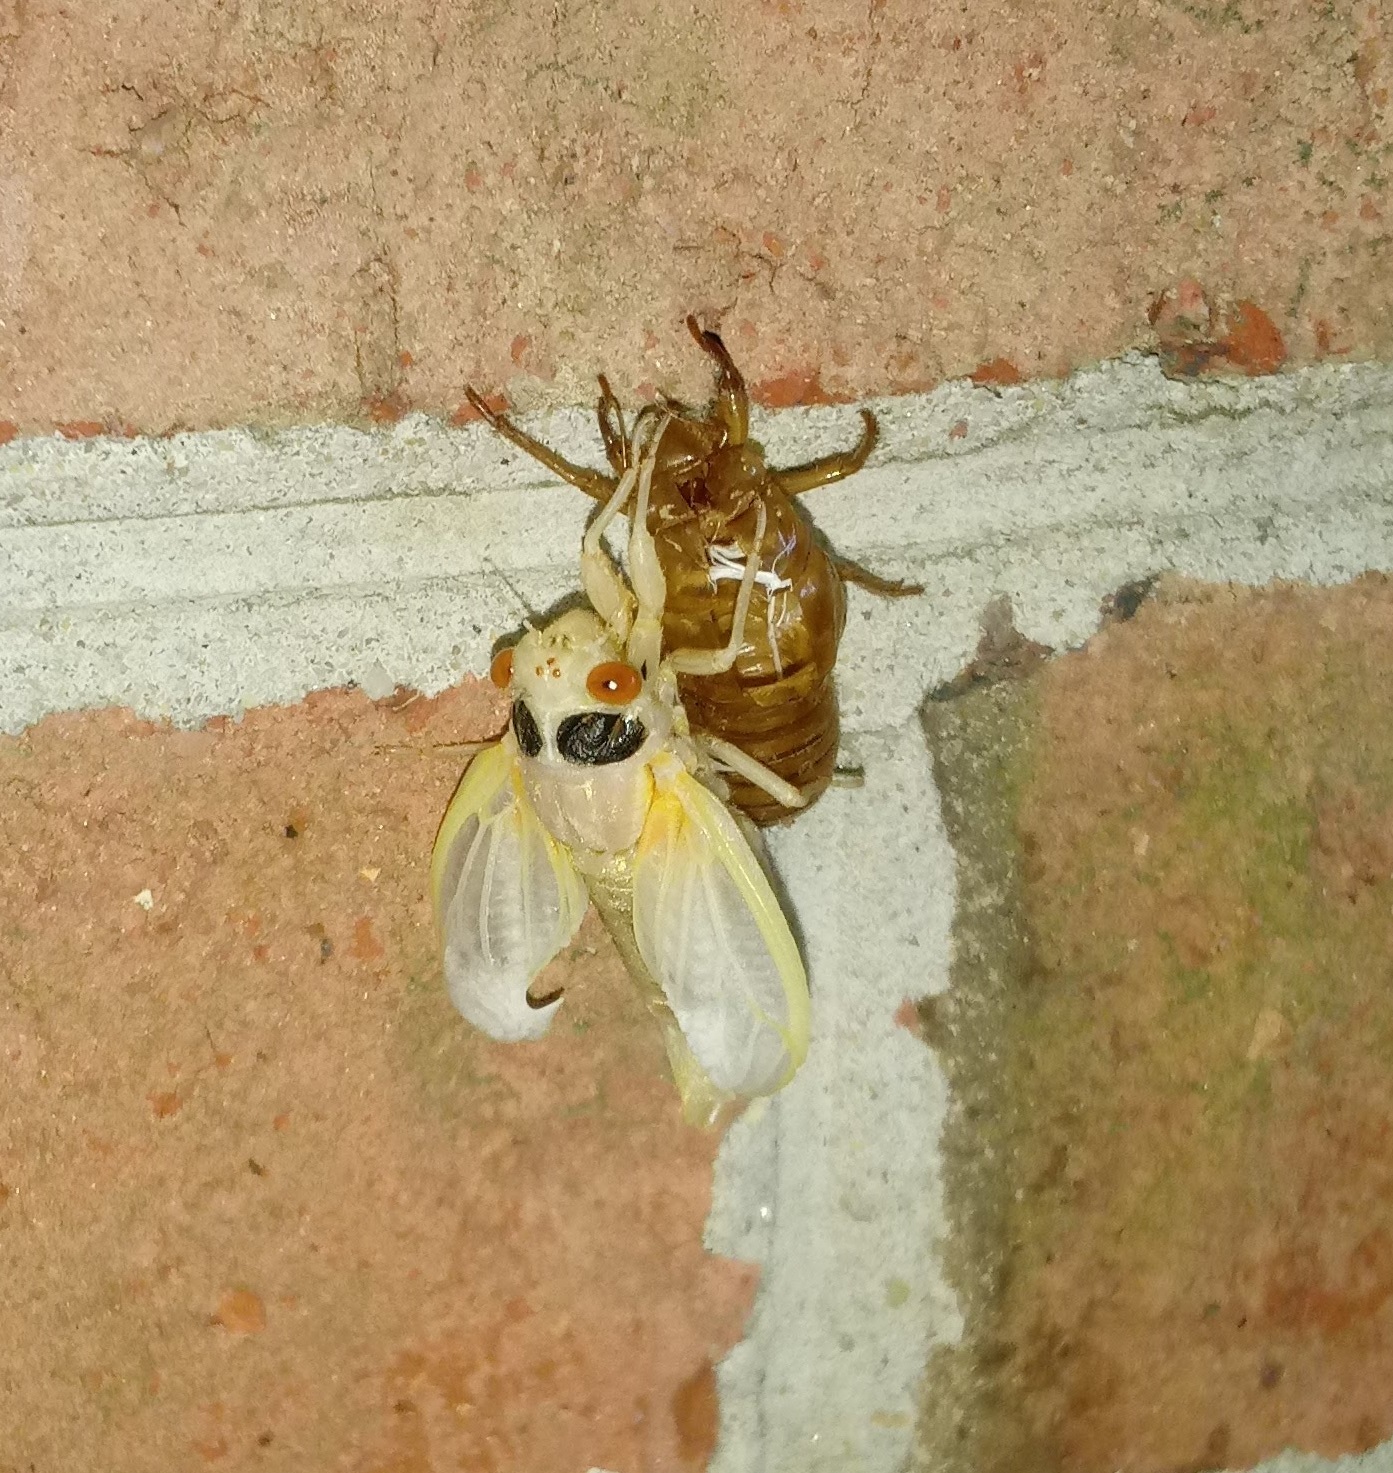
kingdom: Animalia
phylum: Arthropoda
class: Insecta
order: Hemiptera
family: Cicadidae
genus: Magicicada
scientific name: Magicicada
